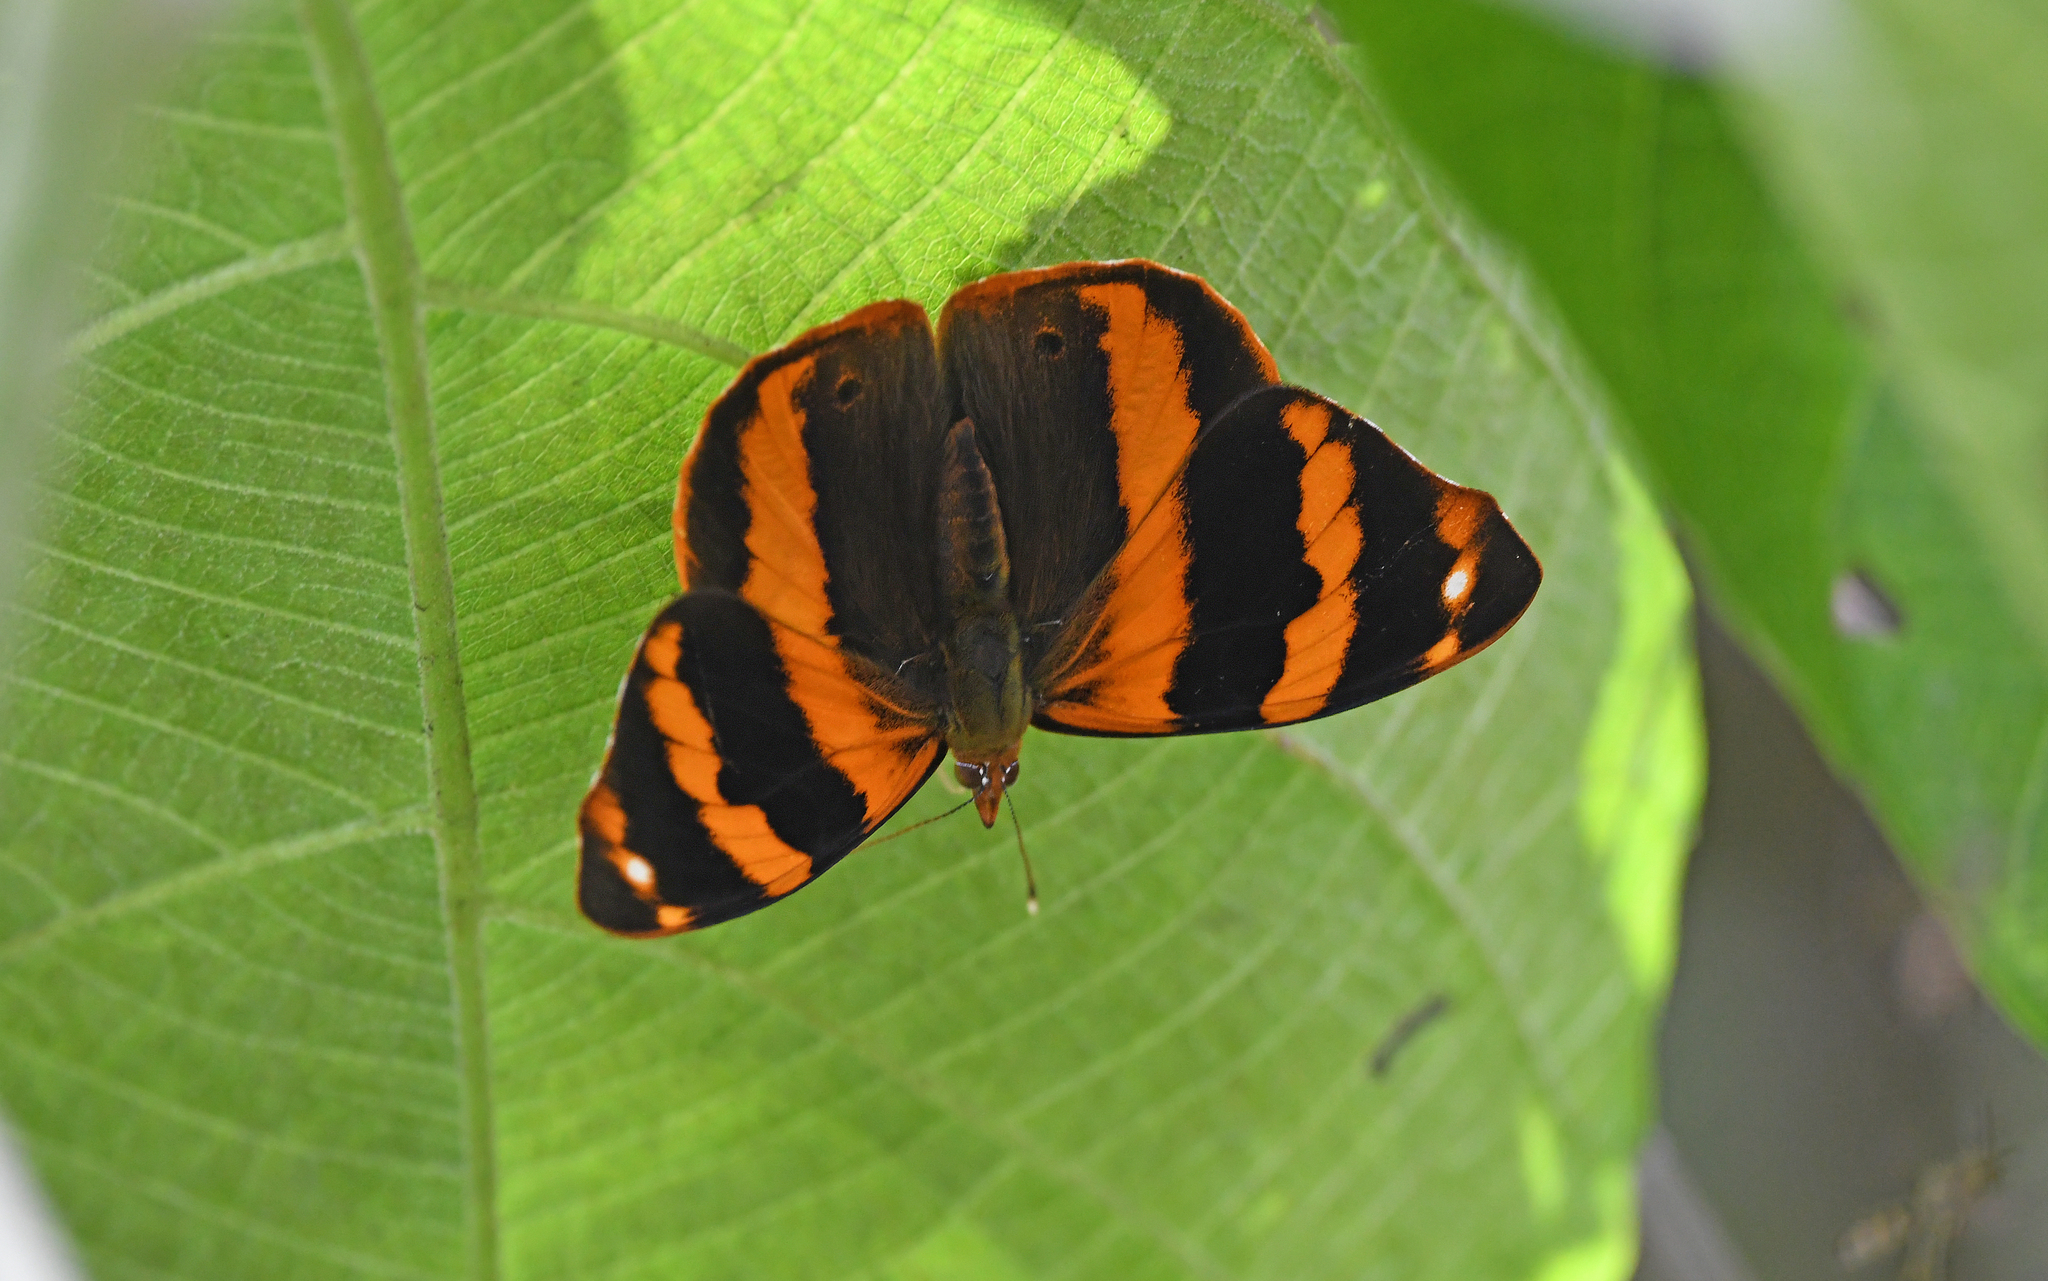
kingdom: Animalia
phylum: Arthropoda
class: Insecta
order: Lepidoptera
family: Nymphalidae
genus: Epiphile
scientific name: Epiphile epicaste
